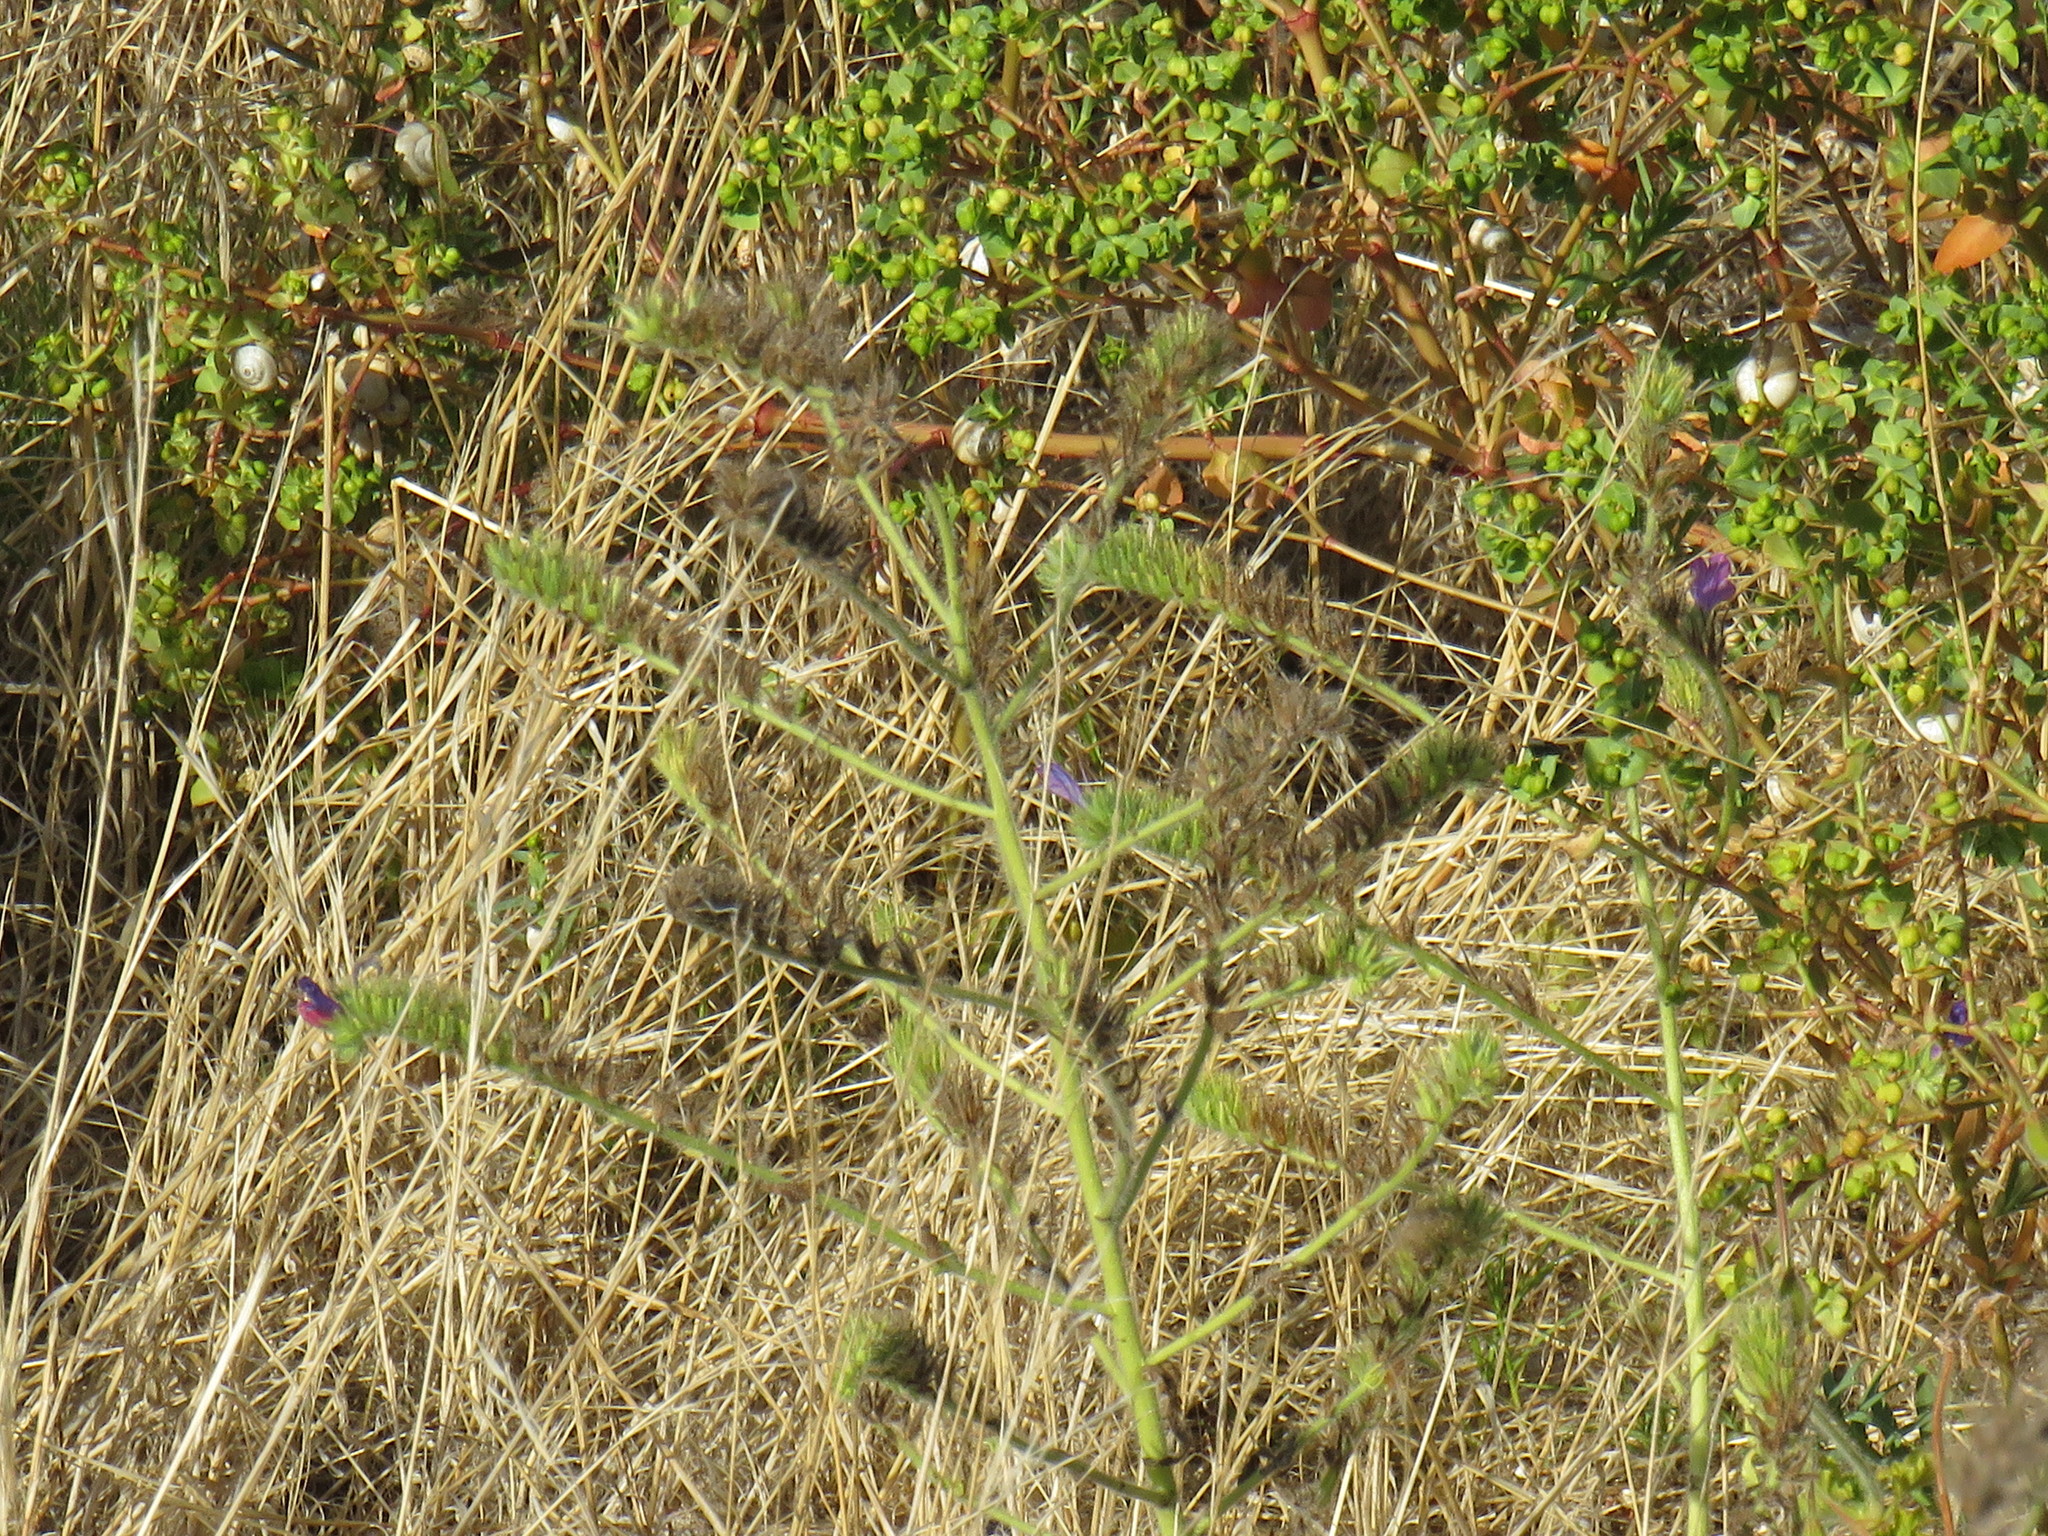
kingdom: Plantae
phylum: Tracheophyta
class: Magnoliopsida
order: Boraginales
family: Boraginaceae
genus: Echium
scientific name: Echium plantagineum
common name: Purple viper's-bugloss
